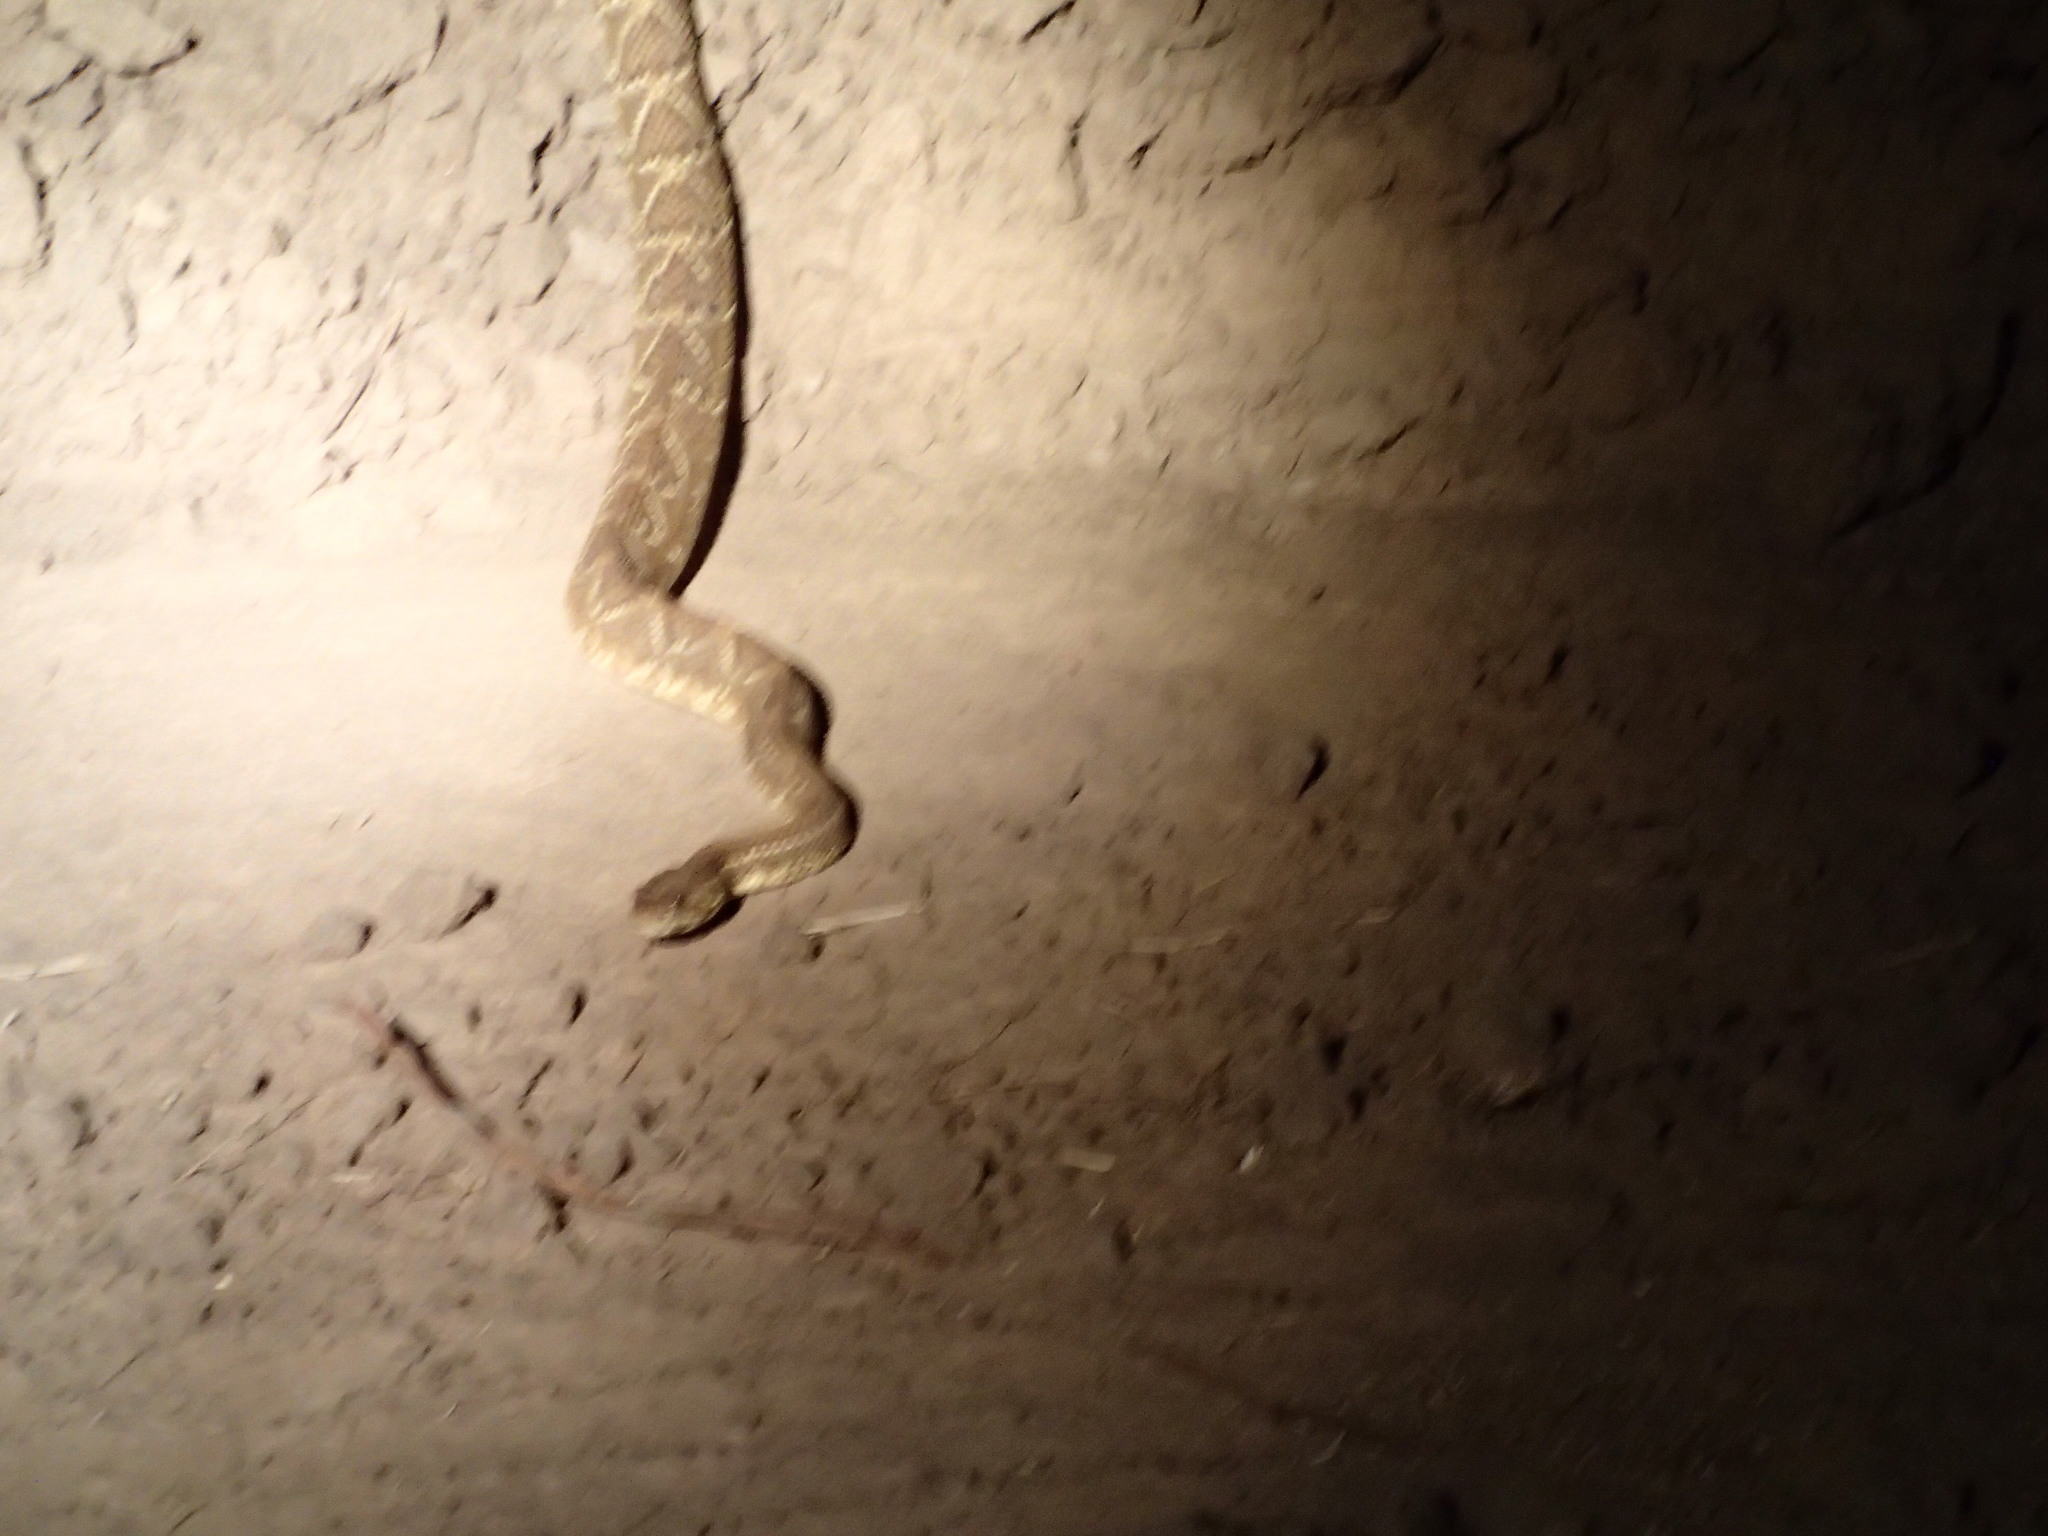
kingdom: Animalia
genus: Crotalus
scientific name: Crotalus durissus
